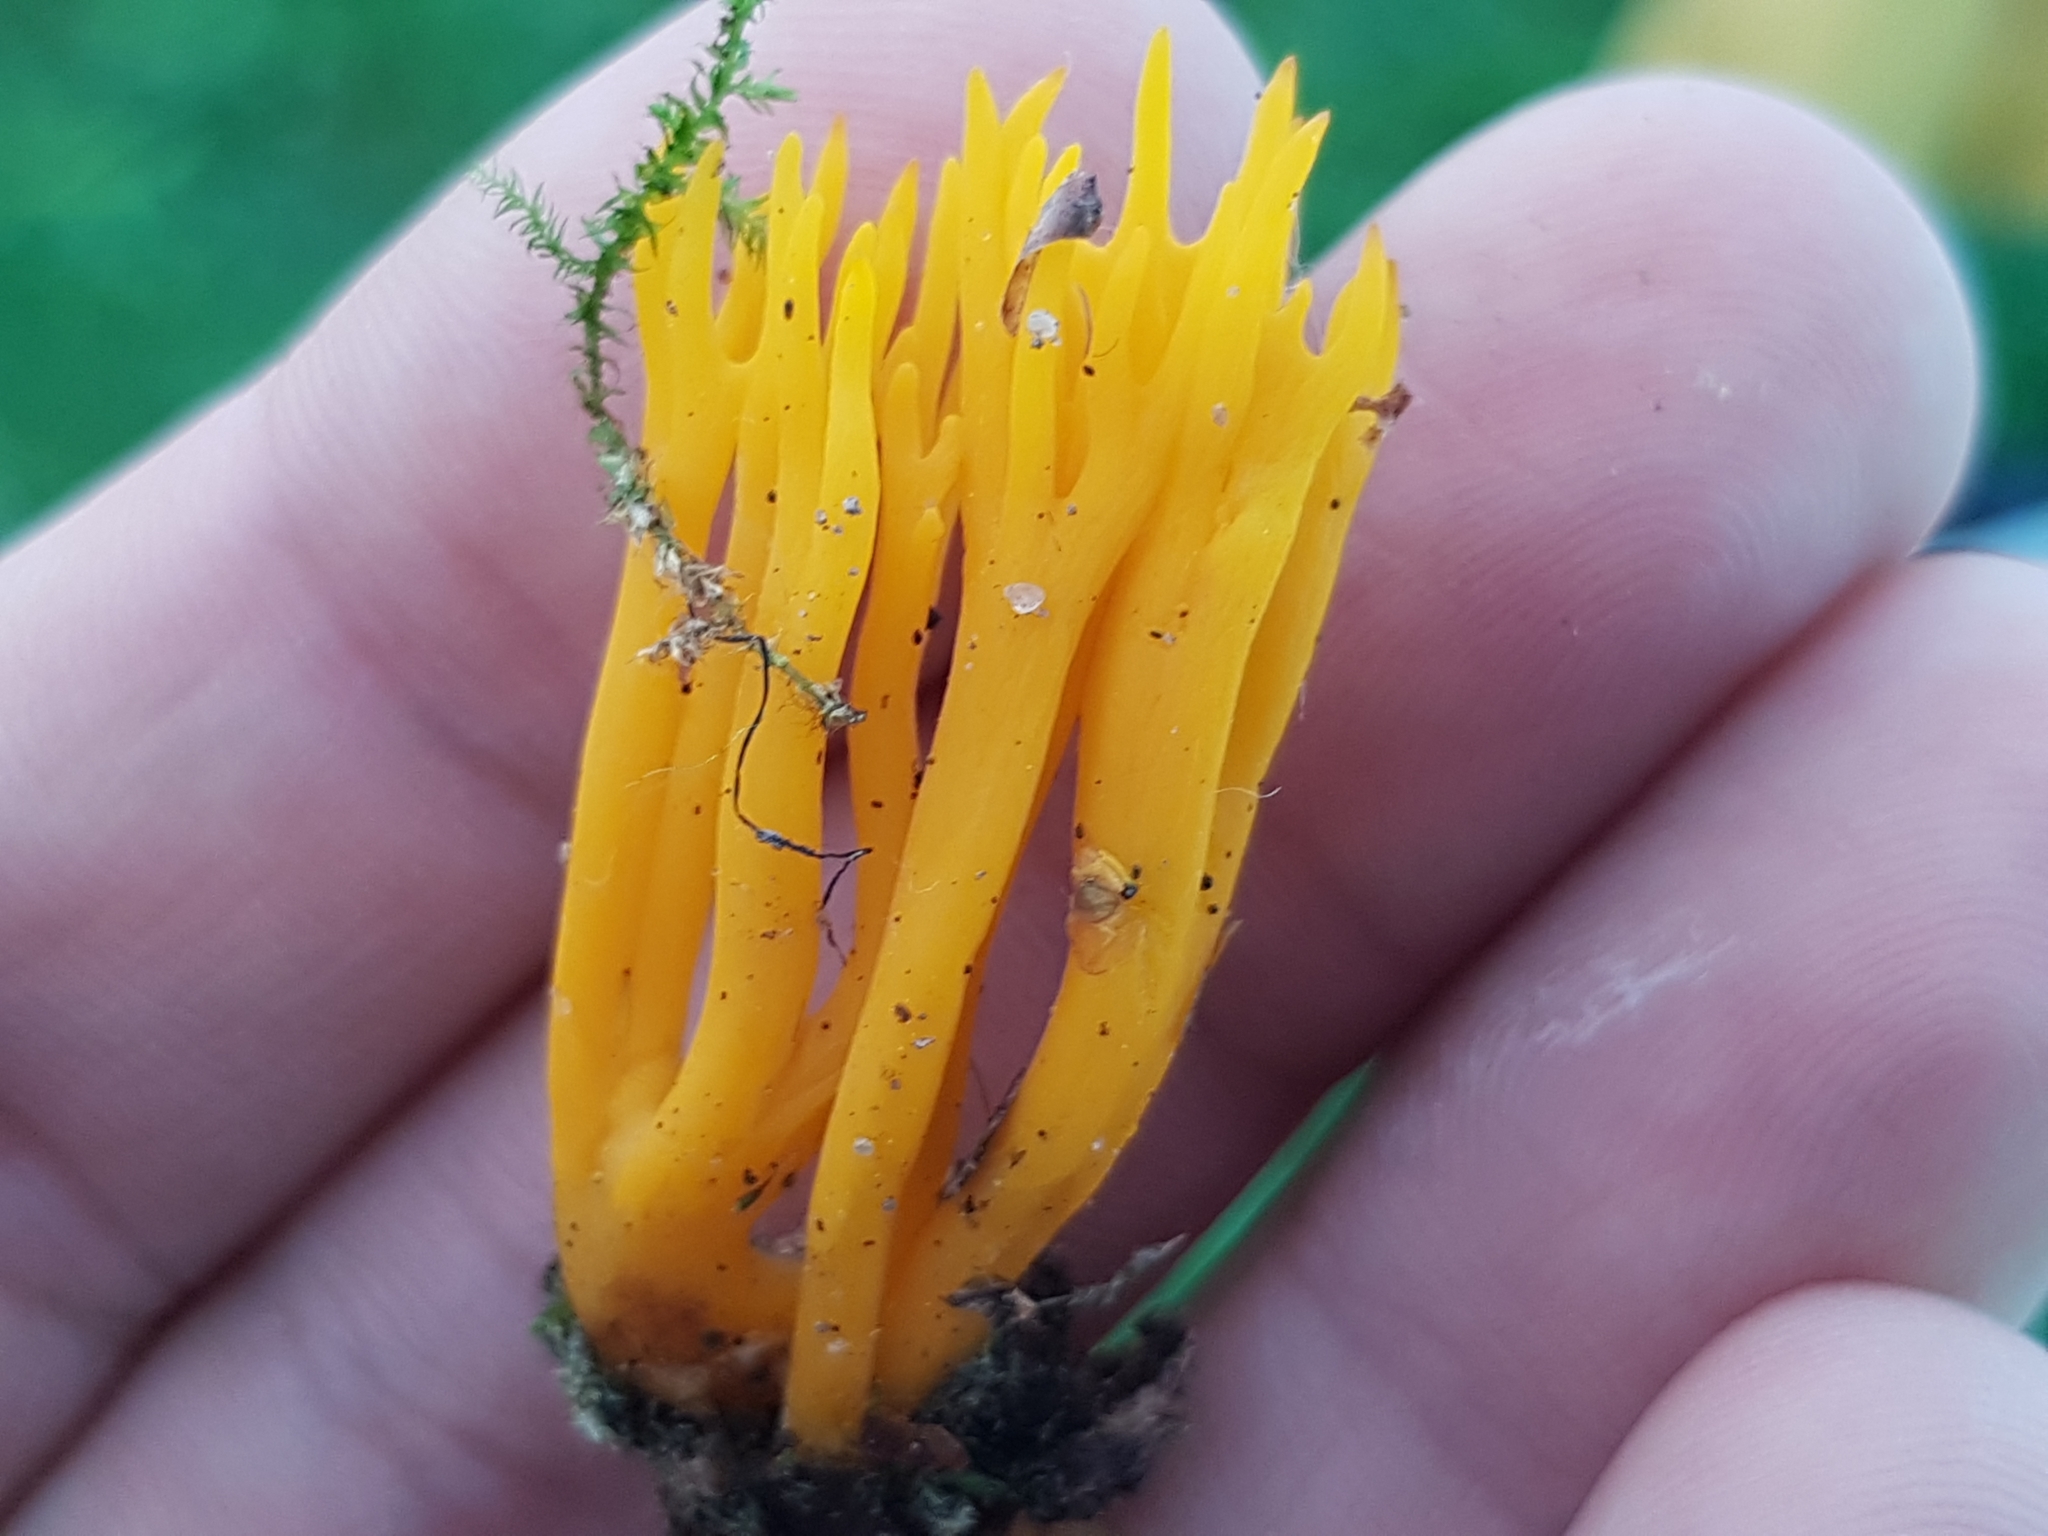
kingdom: Fungi
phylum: Basidiomycota
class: Dacrymycetes
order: Dacrymycetales
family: Dacrymycetaceae
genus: Calocera
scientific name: Calocera viscosa
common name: Yellow stagshorn
